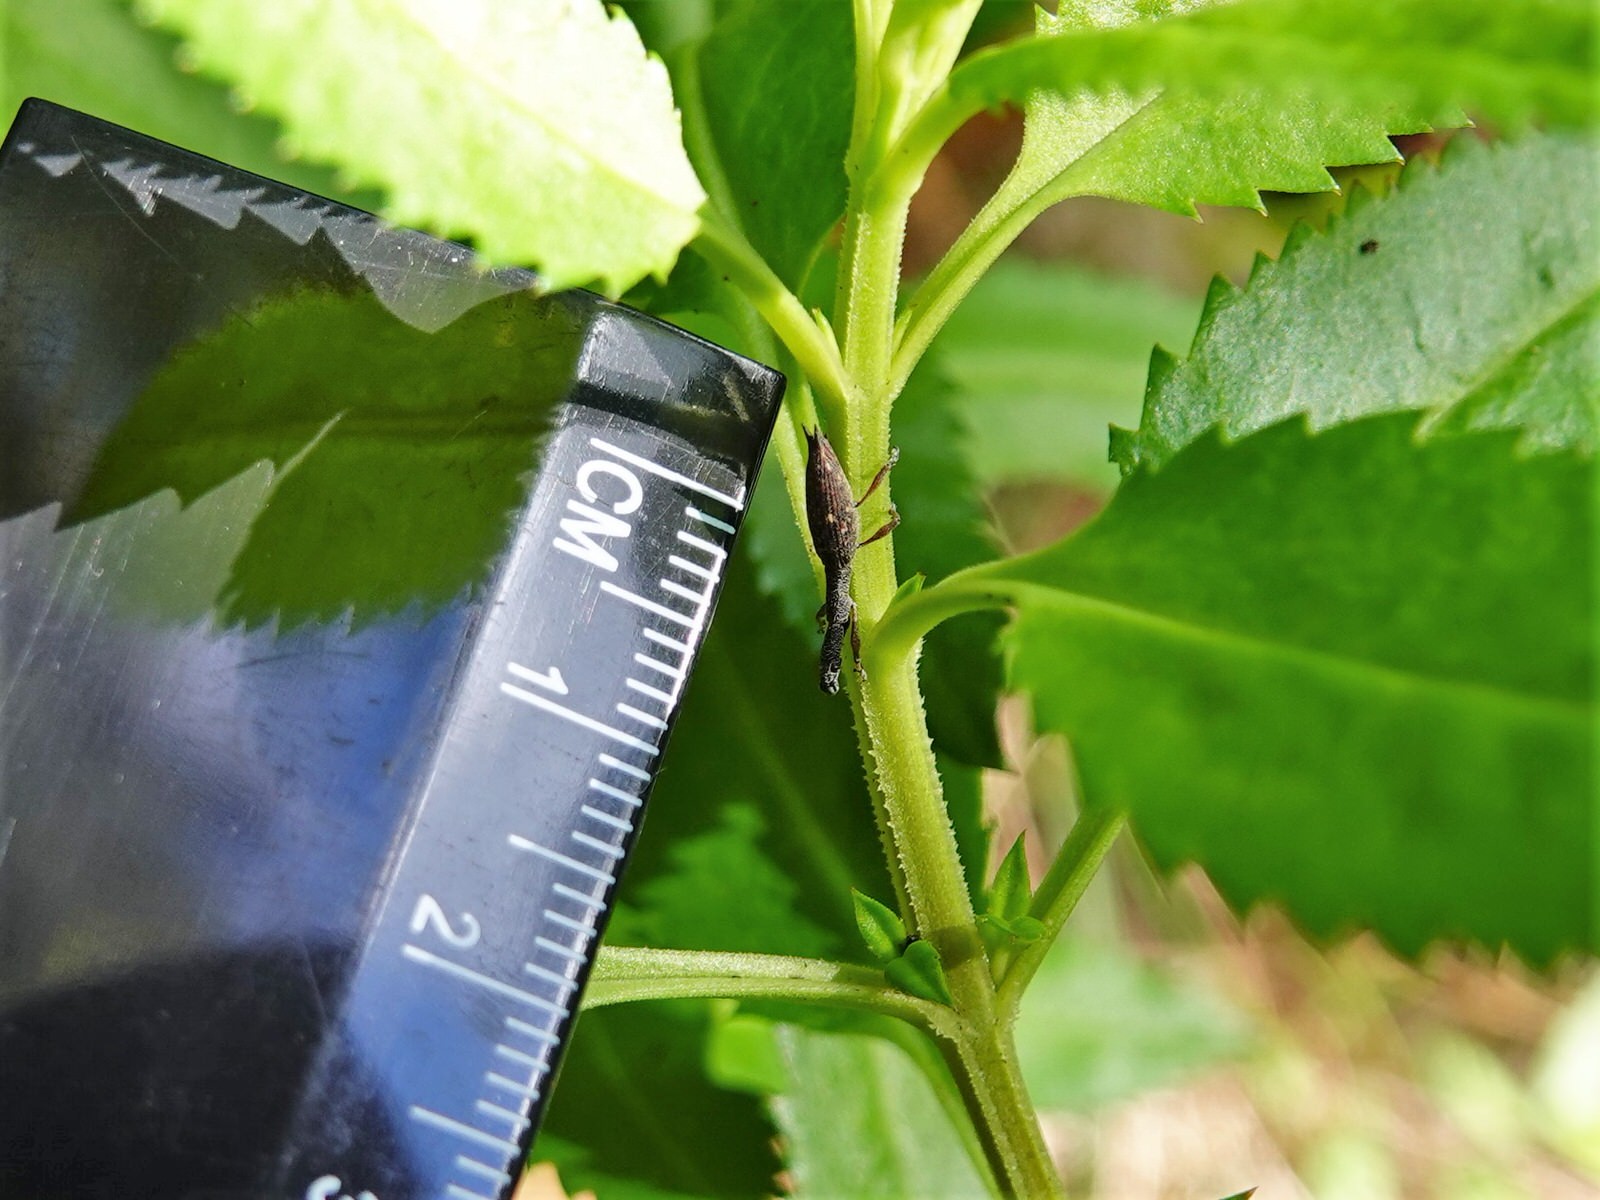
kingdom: Animalia
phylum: Arthropoda
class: Insecta
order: Coleoptera
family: Curculionidae
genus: Rhadinosomus
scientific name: Rhadinosomus acuminatus
